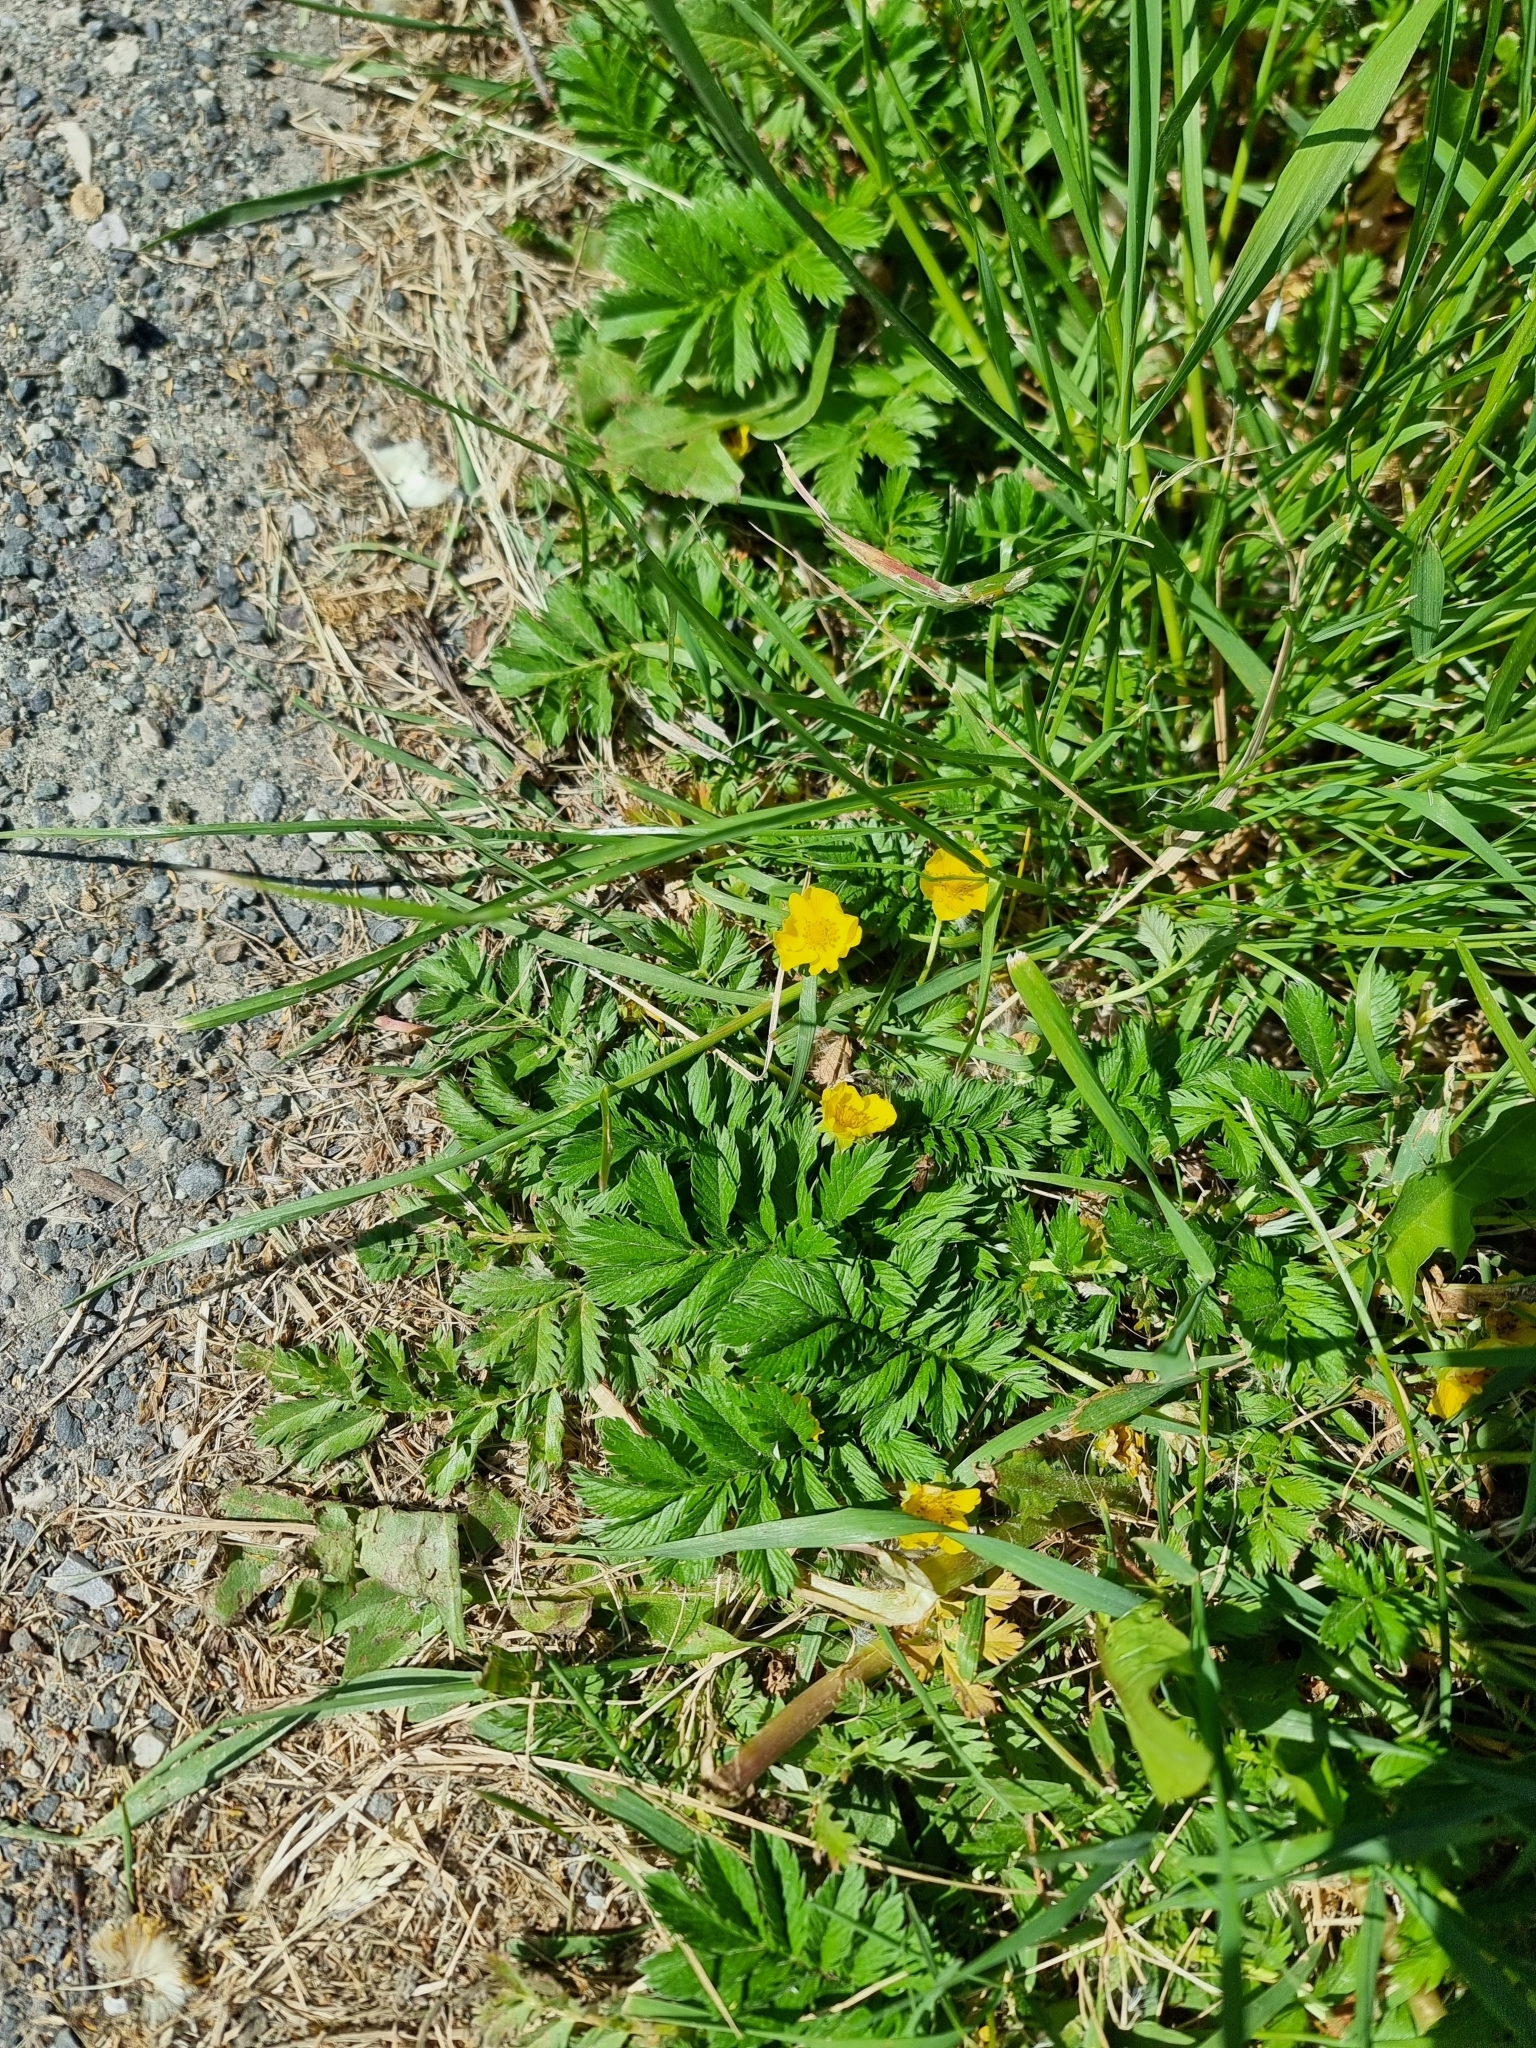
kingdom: Plantae
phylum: Tracheophyta
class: Magnoliopsida
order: Rosales
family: Rosaceae
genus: Argentina
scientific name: Argentina anserina
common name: Common silverweed
